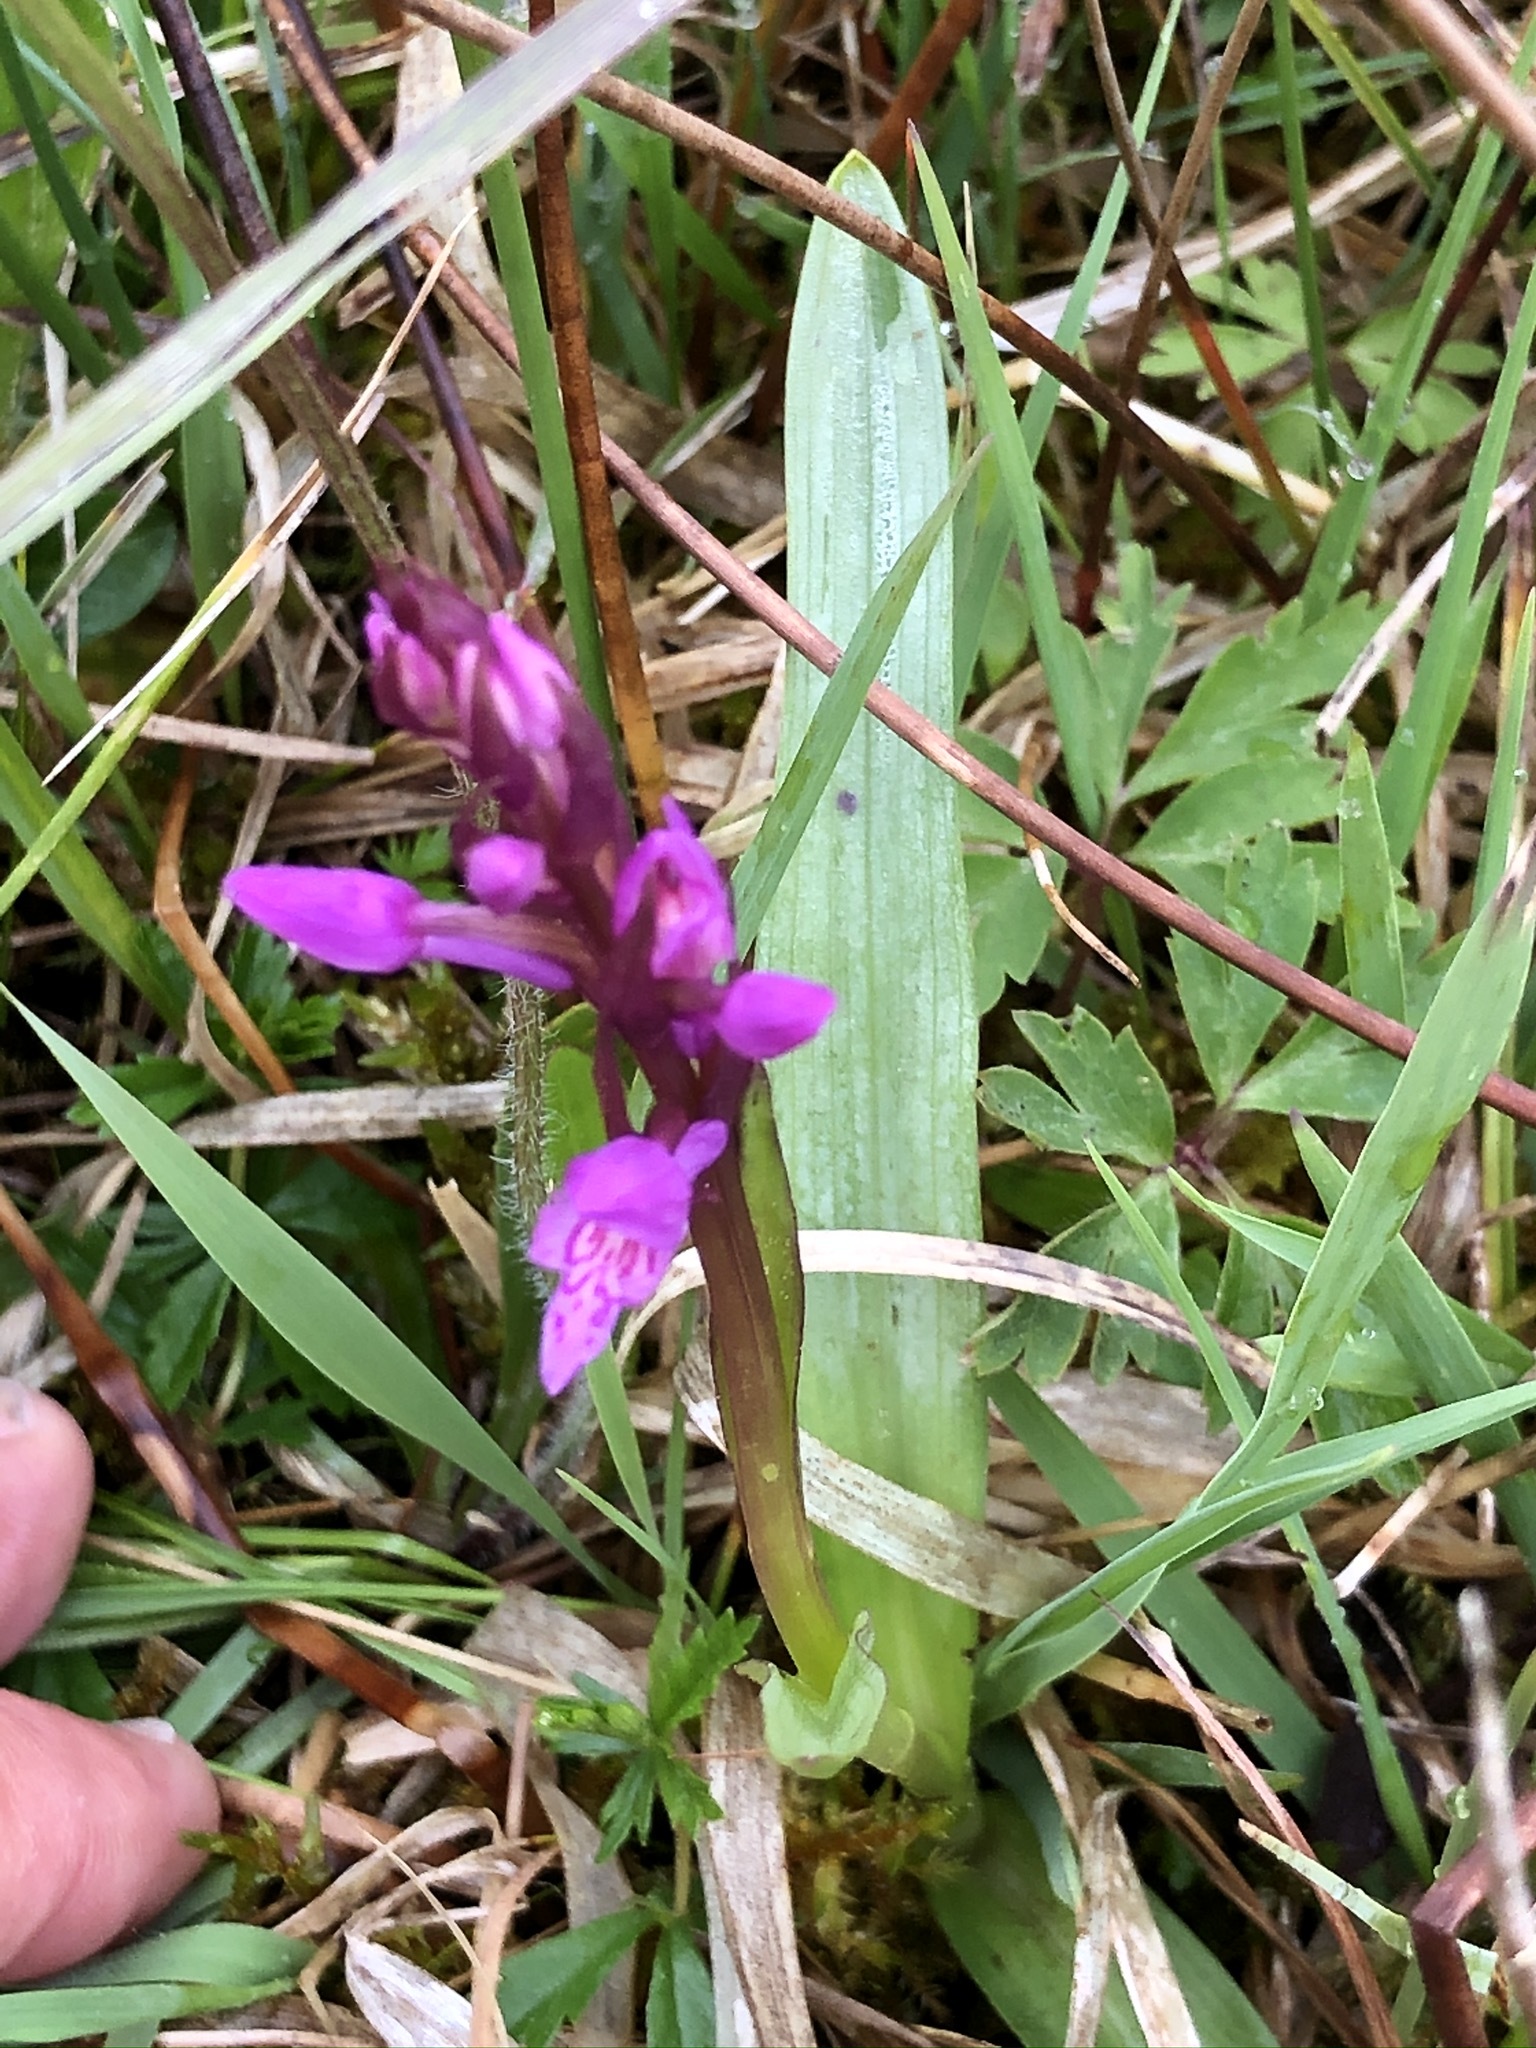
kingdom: Plantae
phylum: Tracheophyta
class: Liliopsida
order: Asparagales
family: Orchidaceae
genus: Dactylorhiza
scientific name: Dactylorhiza majalis
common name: Marsh orchid
